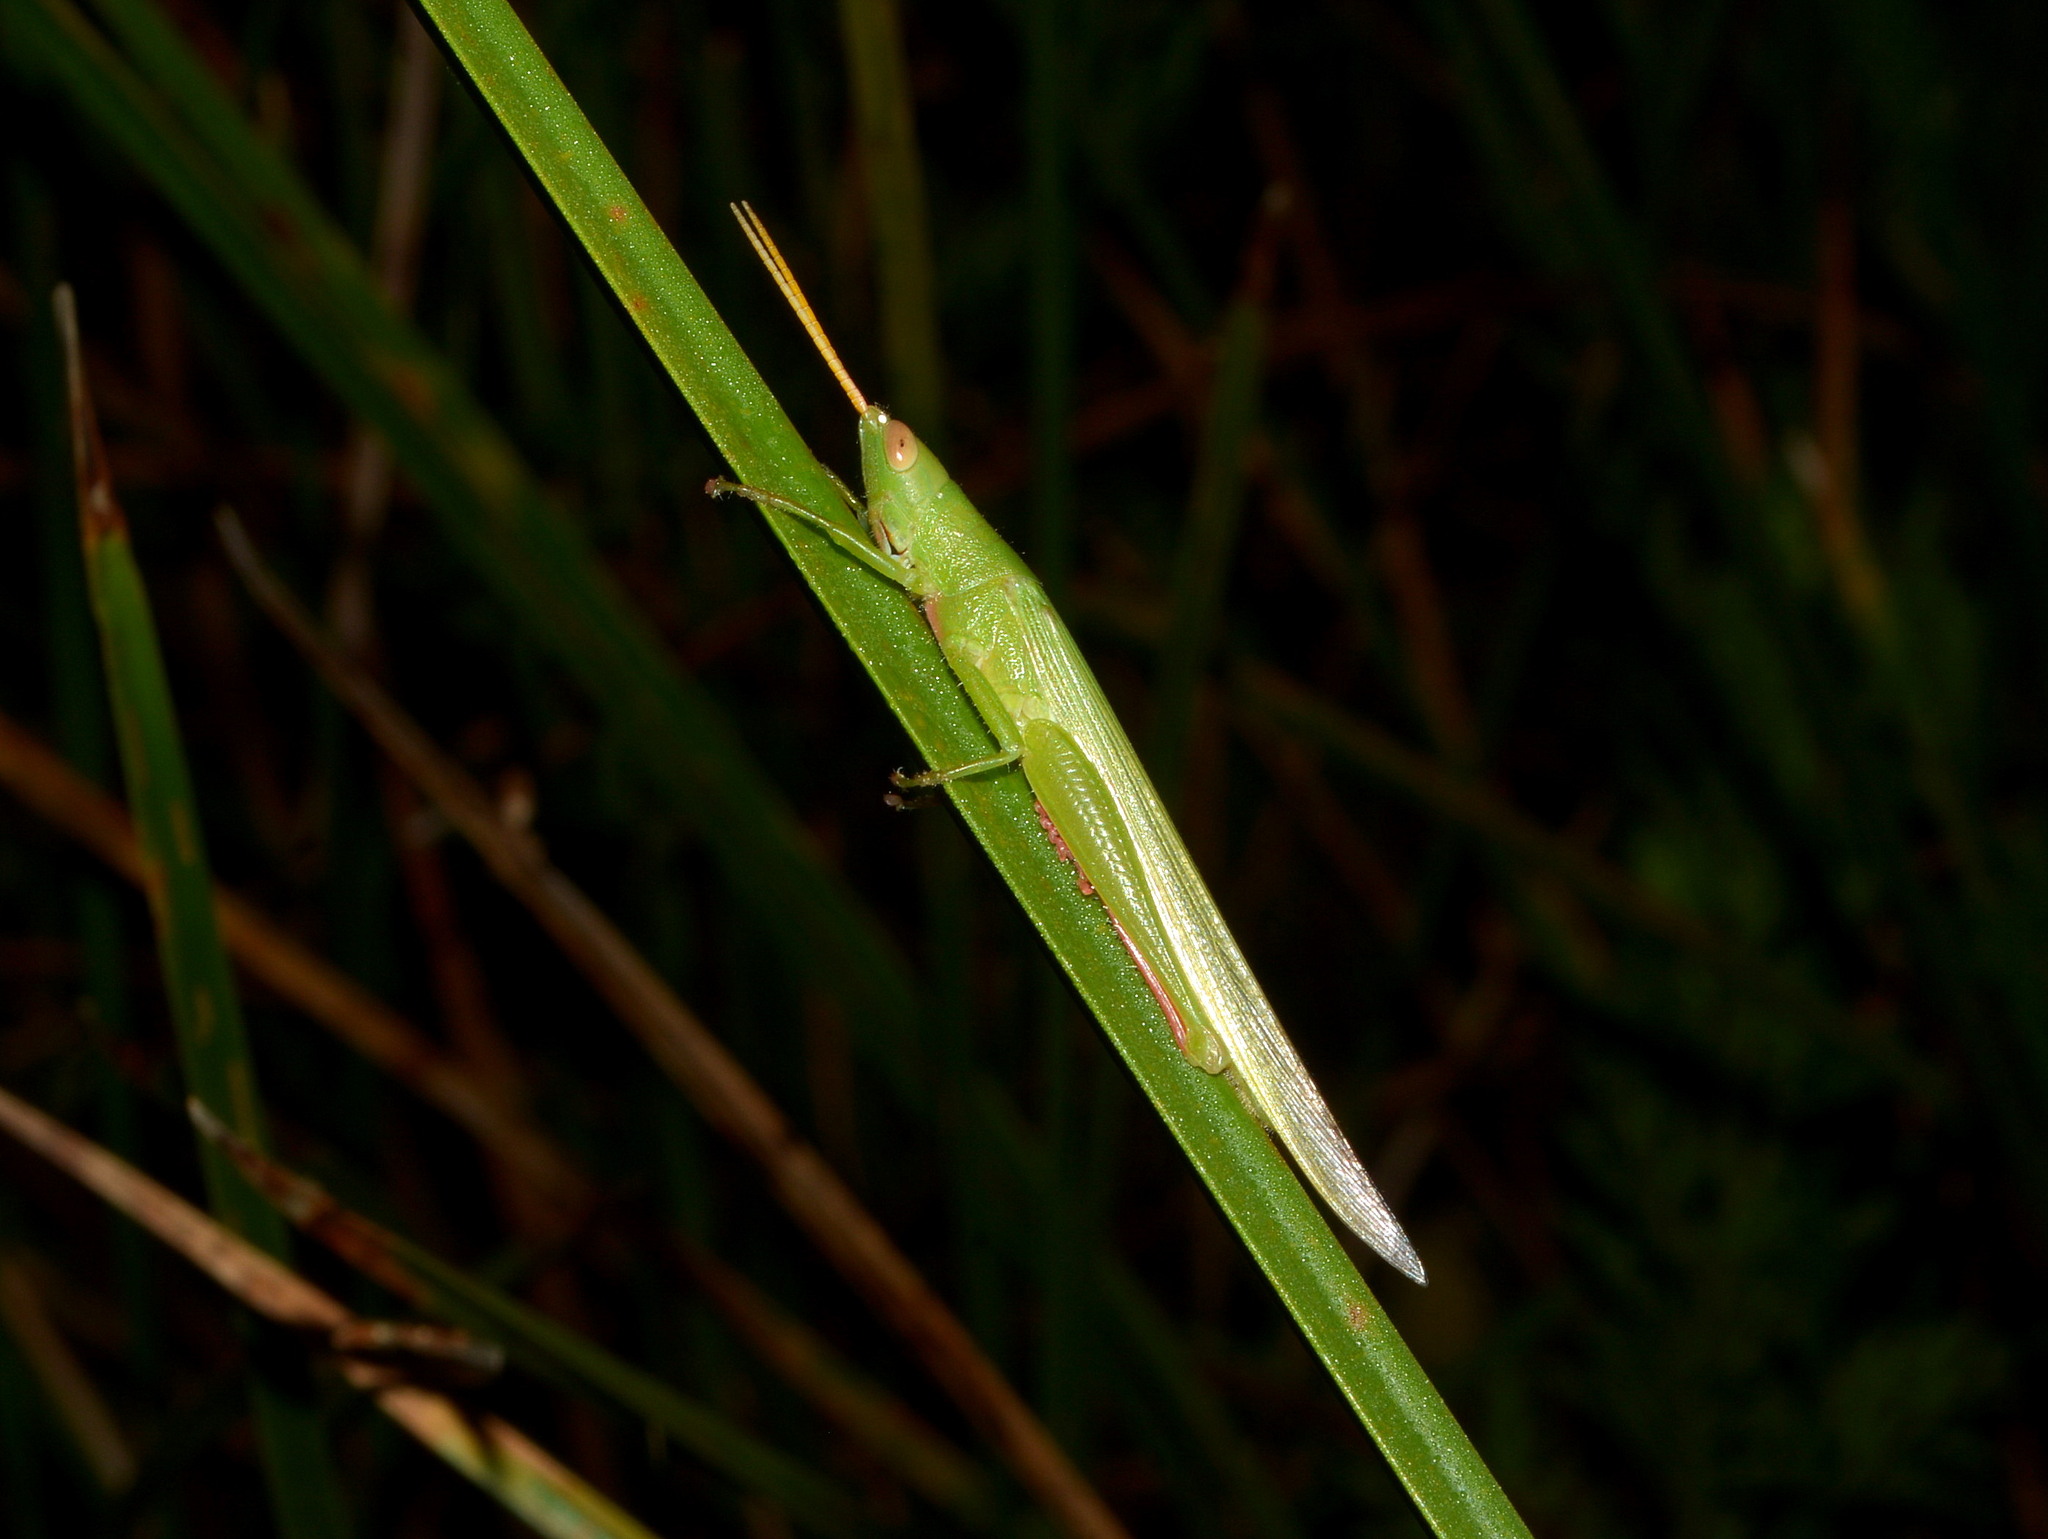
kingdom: Animalia
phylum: Arthropoda
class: Insecta
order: Orthoptera
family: Acrididae
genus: Belosacris
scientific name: Belosacris coccineipes
